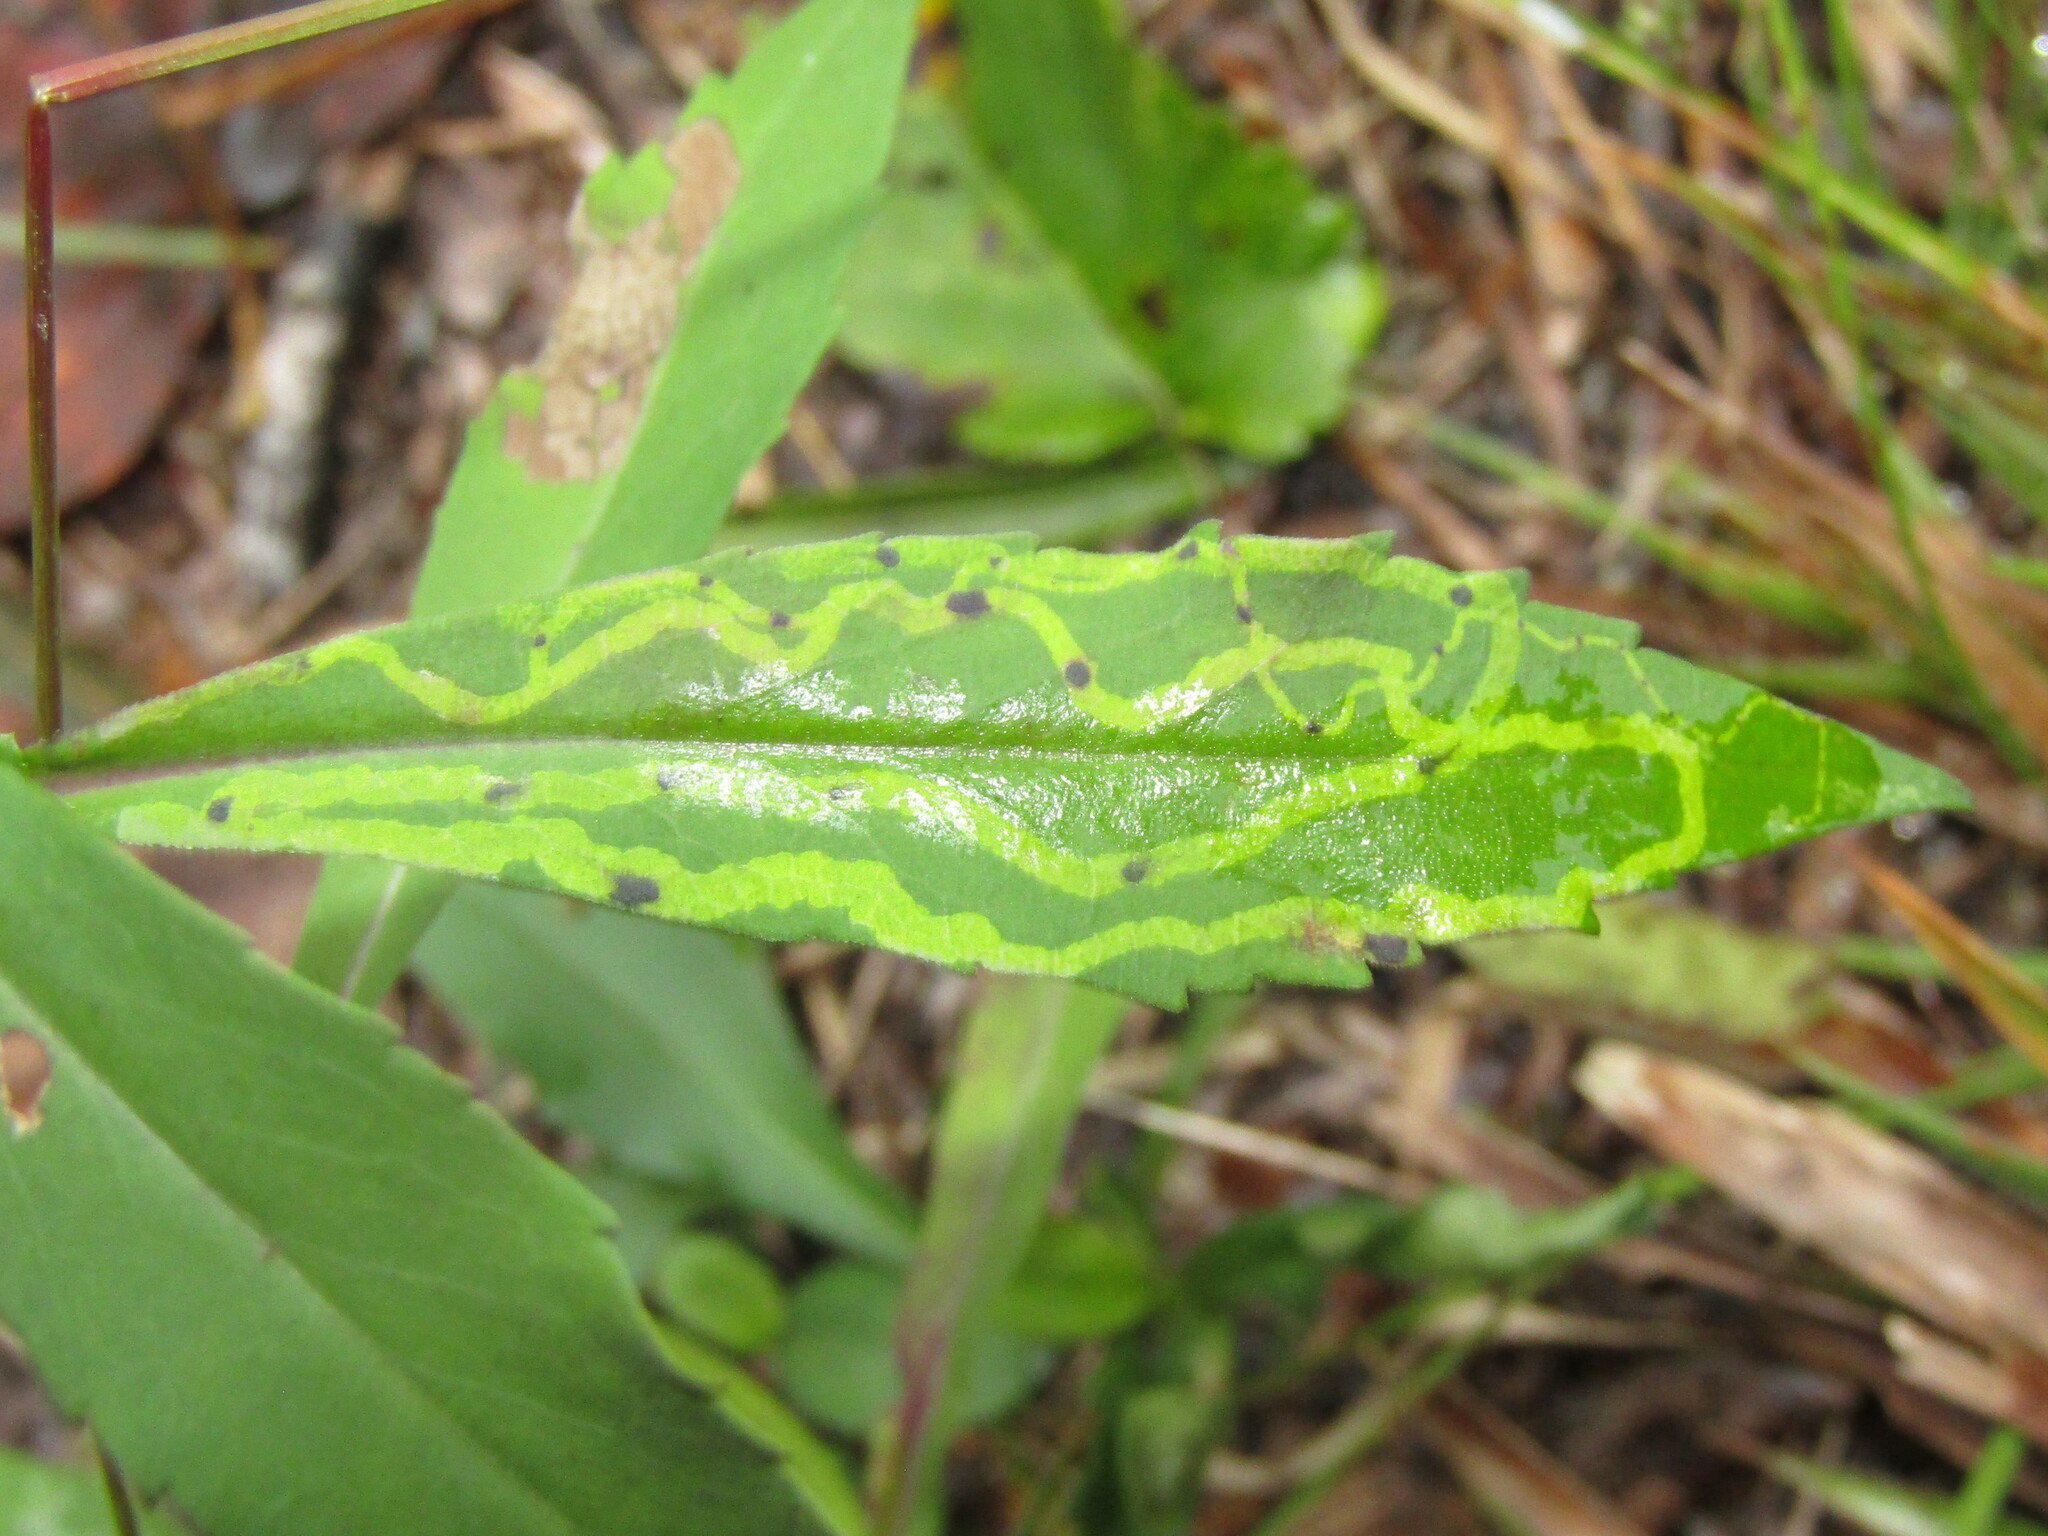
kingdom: Animalia
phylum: Arthropoda
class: Insecta
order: Diptera
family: Agromyzidae
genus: Ophiomyia
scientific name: Ophiomyia parda
